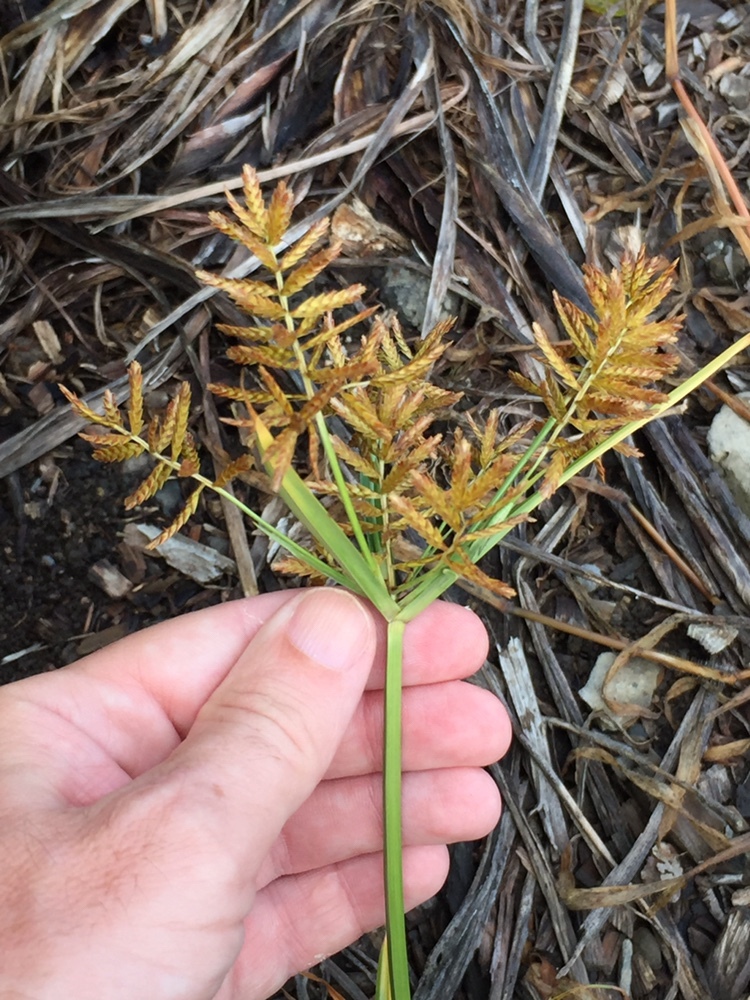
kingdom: Plantae
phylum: Tracheophyta
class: Liliopsida
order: Poales
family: Cyperaceae
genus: Cyperus
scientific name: Cyperus esculentus
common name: Yellow nutsedge
